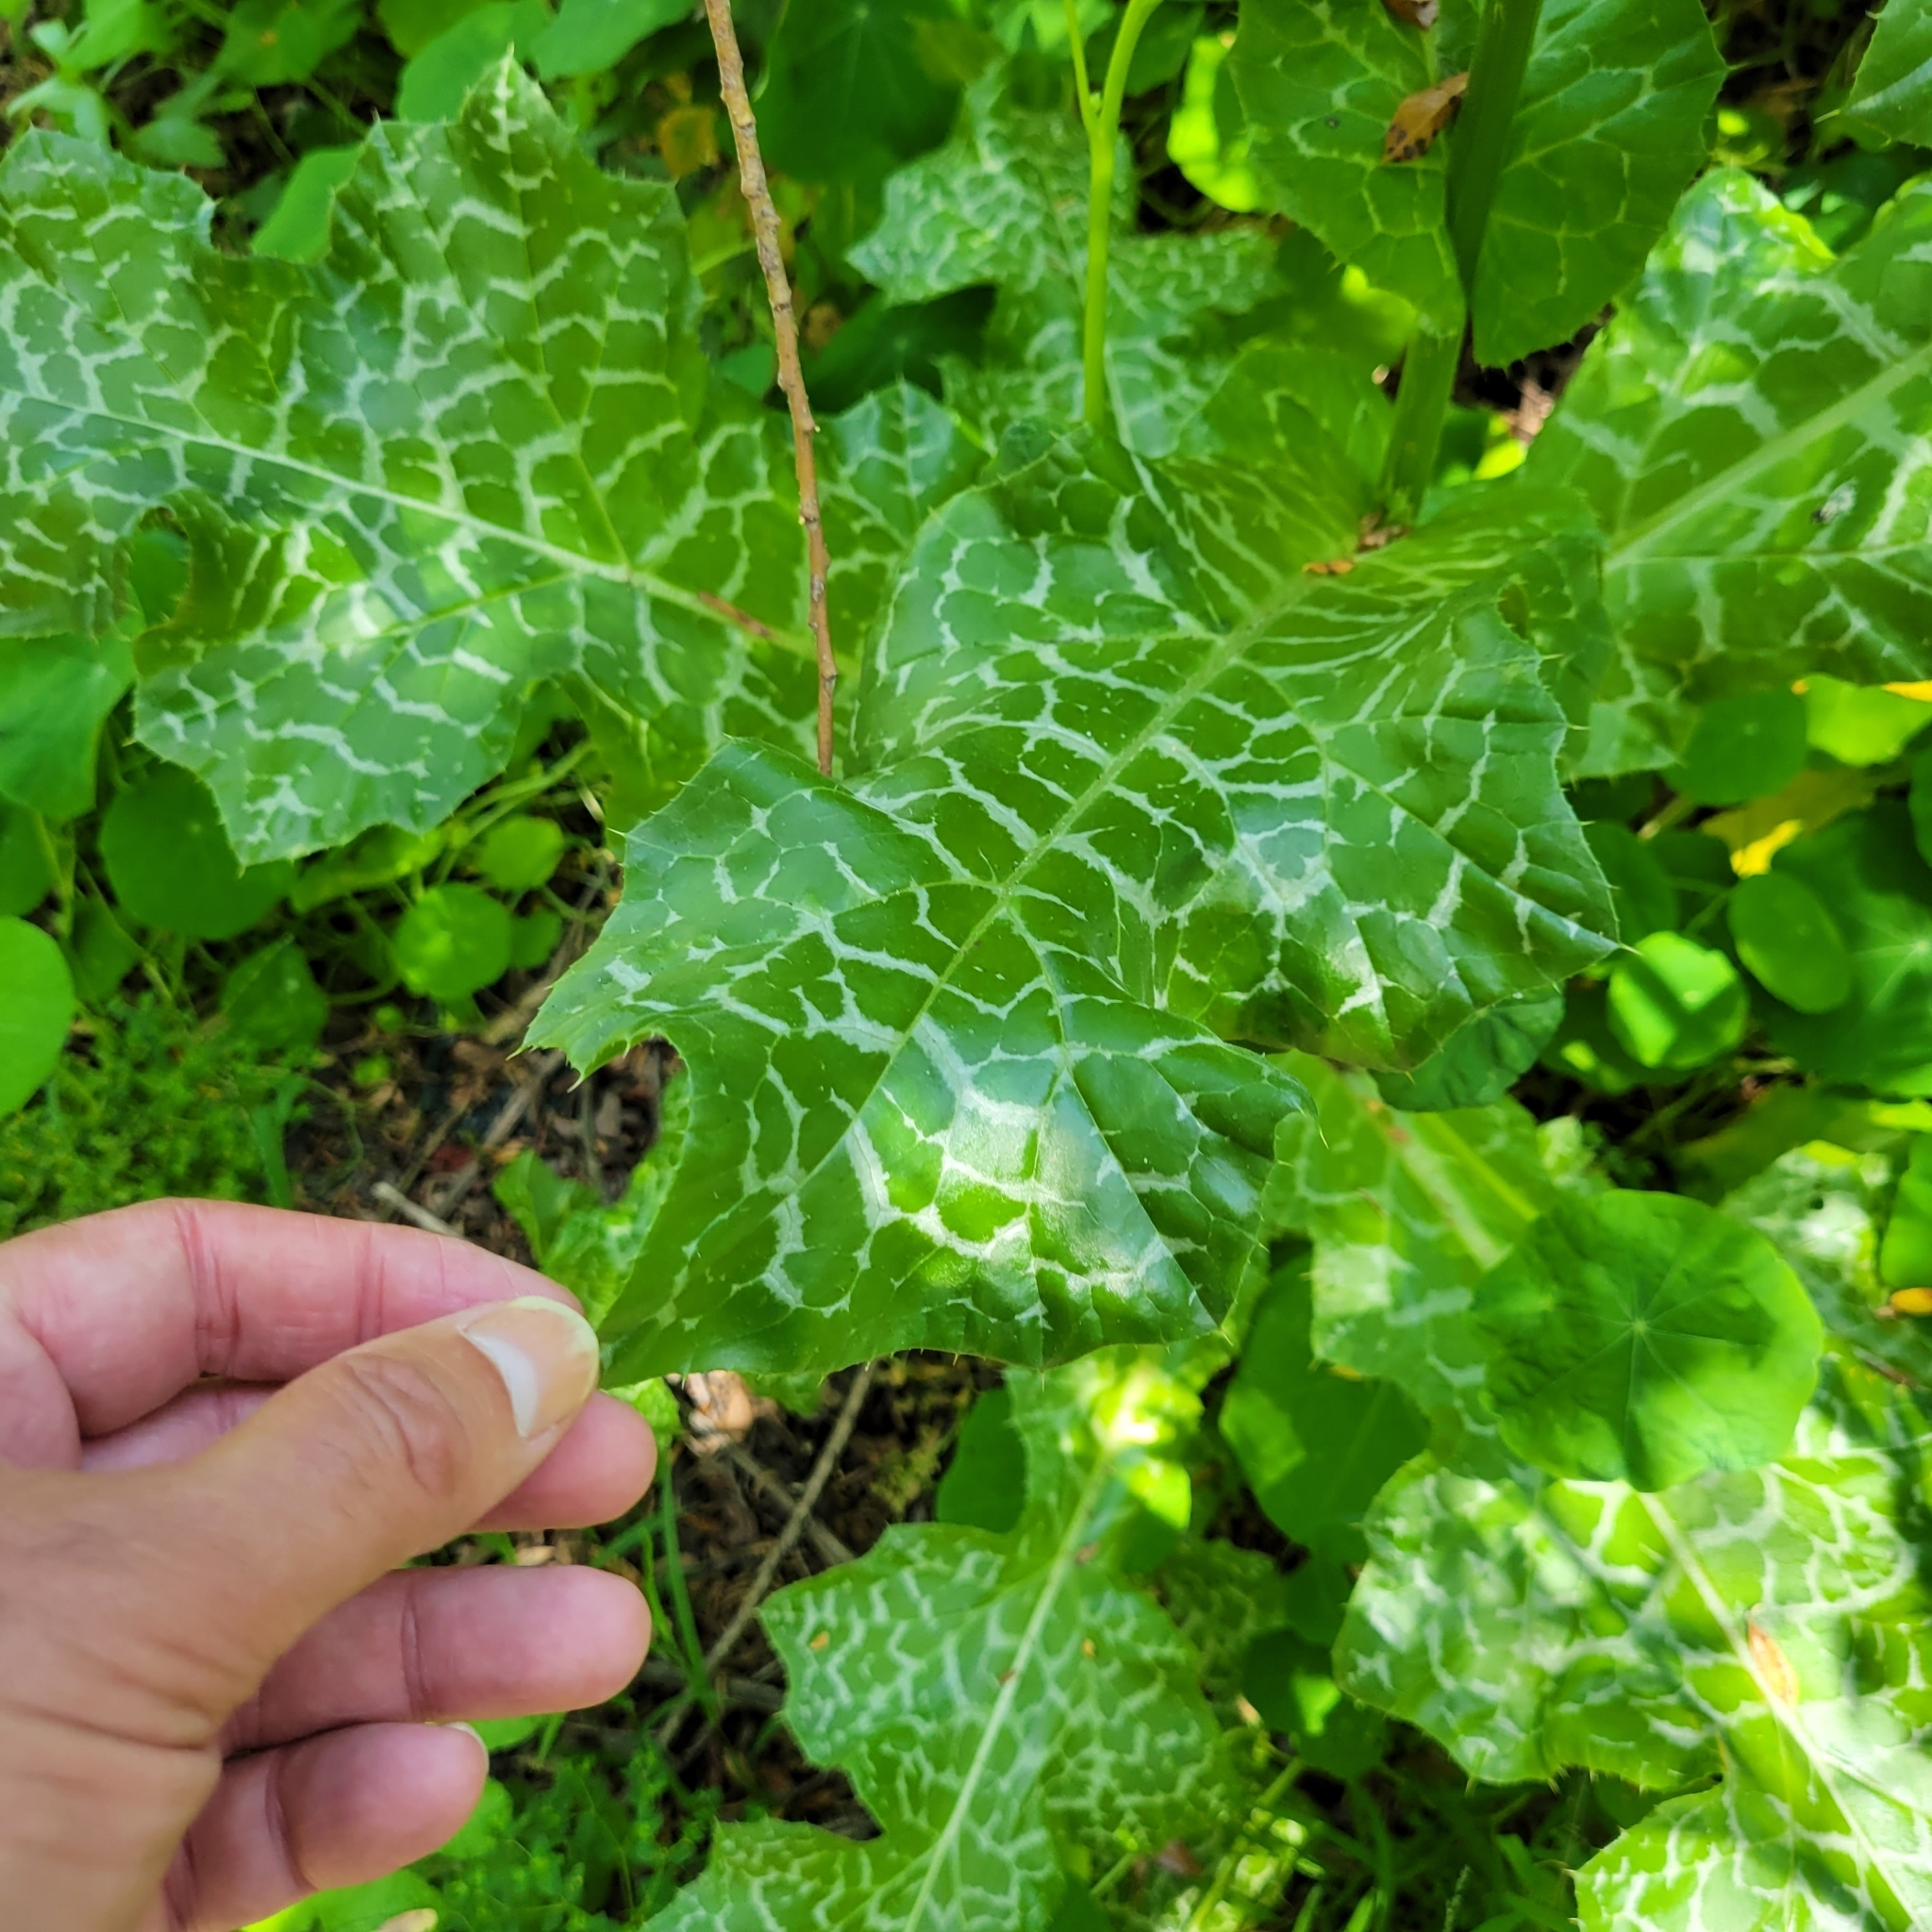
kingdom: Plantae
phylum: Tracheophyta
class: Magnoliopsida
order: Asterales
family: Asteraceae
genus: Silybum
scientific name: Silybum marianum
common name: Milk thistle
